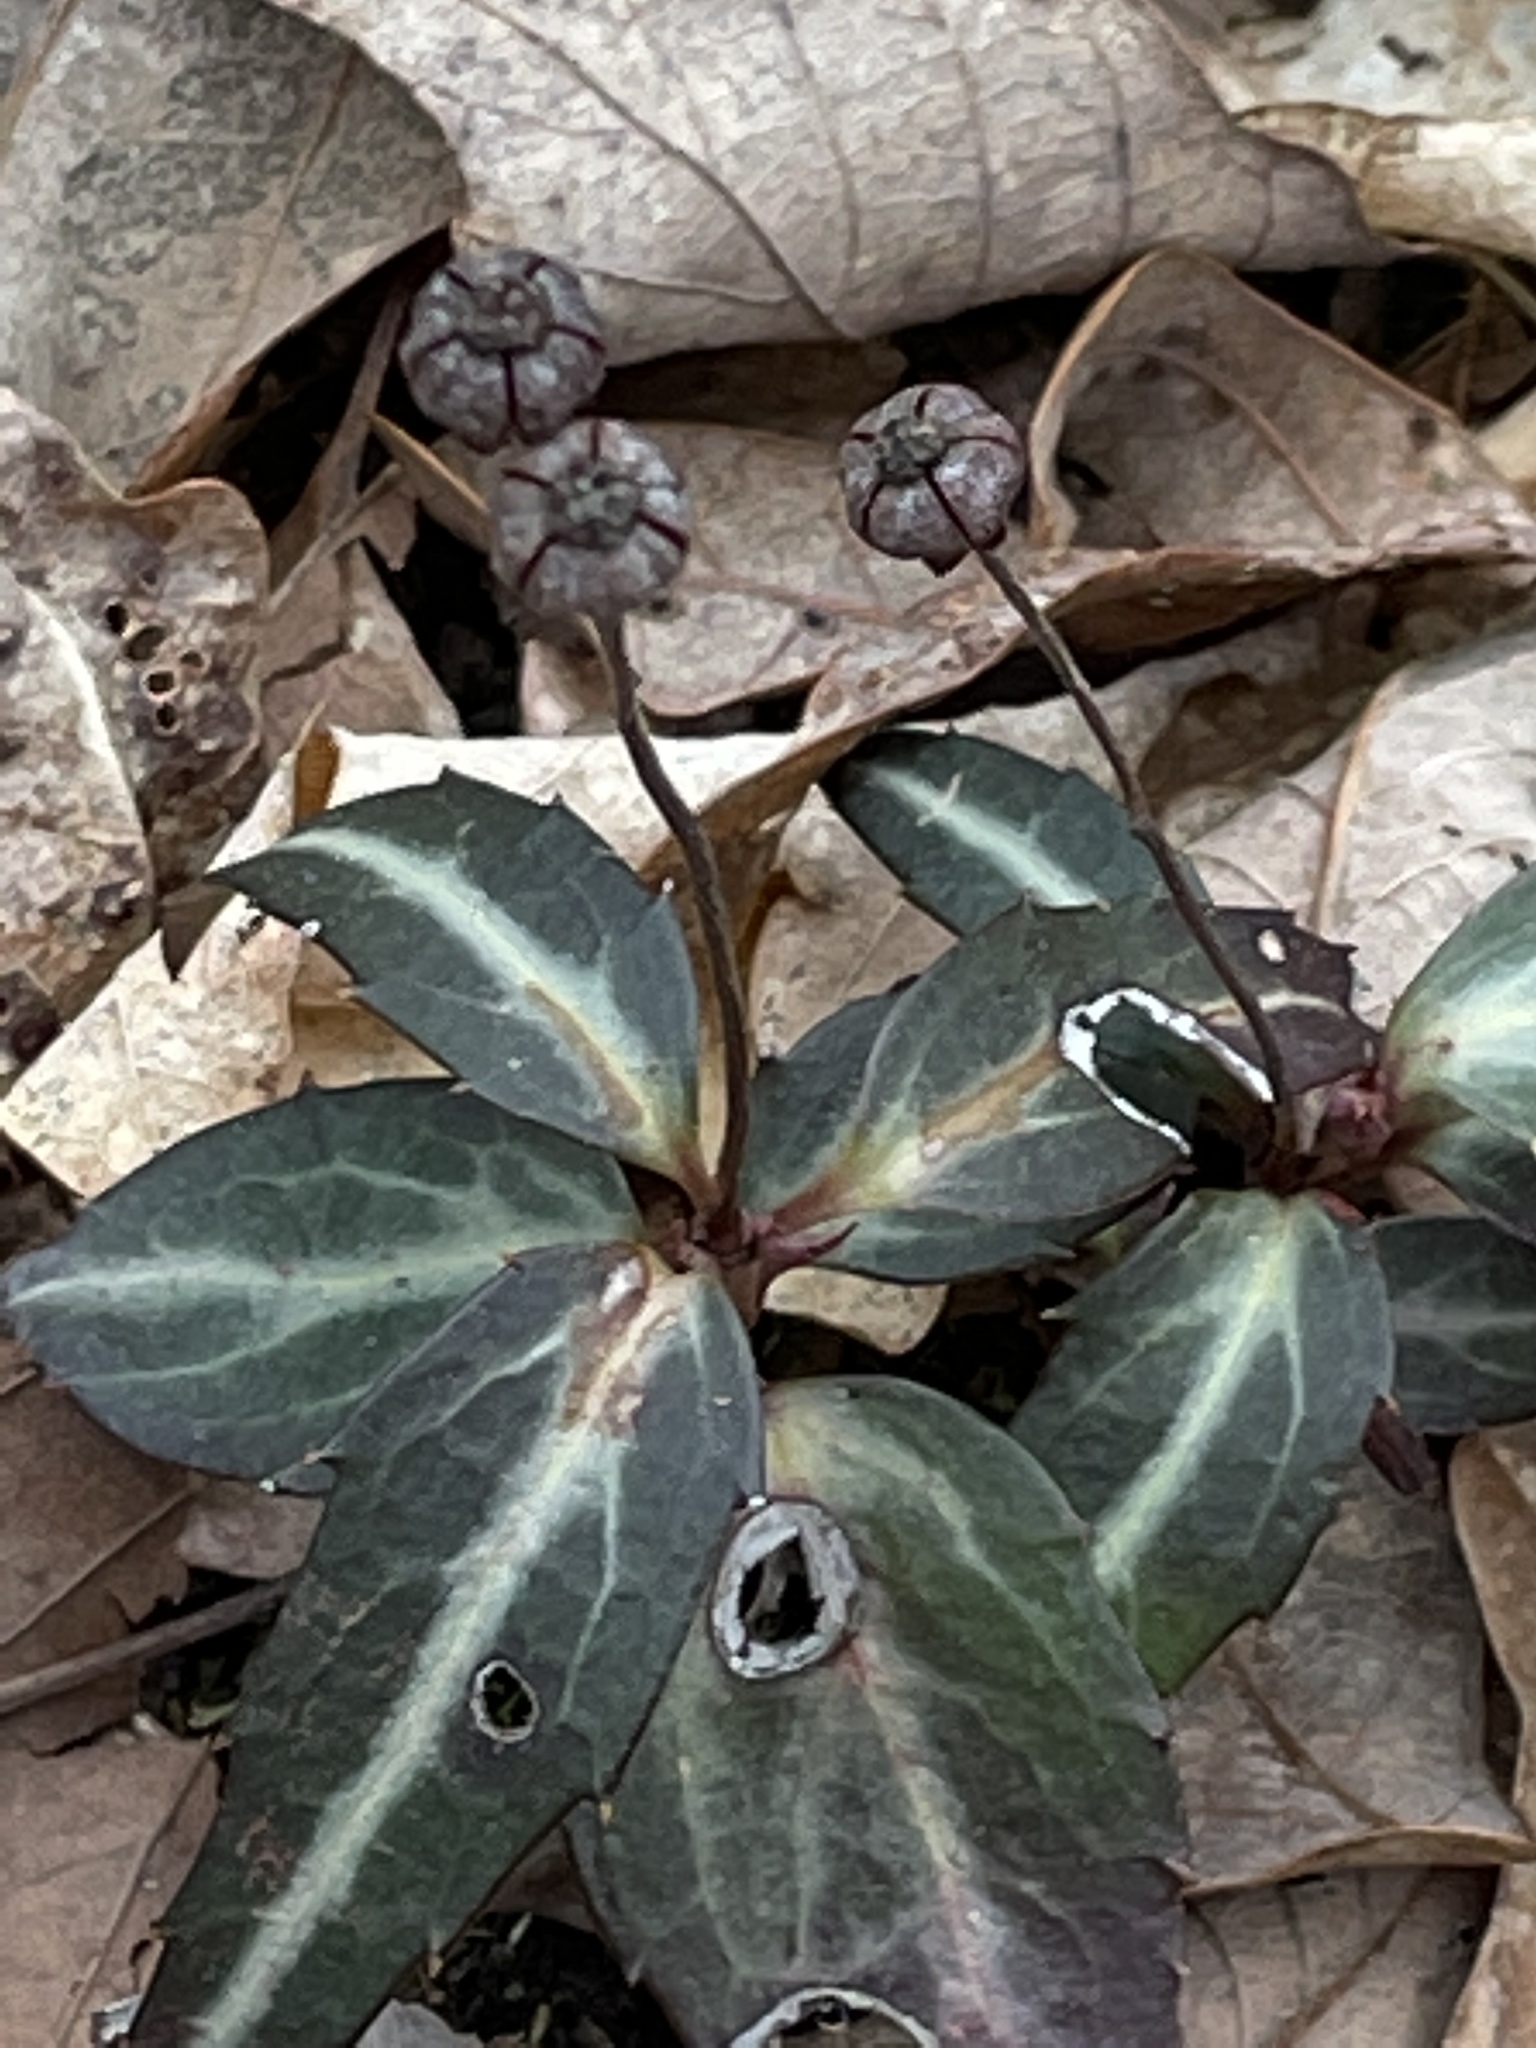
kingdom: Plantae
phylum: Tracheophyta
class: Magnoliopsida
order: Ericales
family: Ericaceae
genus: Chimaphila
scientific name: Chimaphila maculata
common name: Spotted pipsissewa
